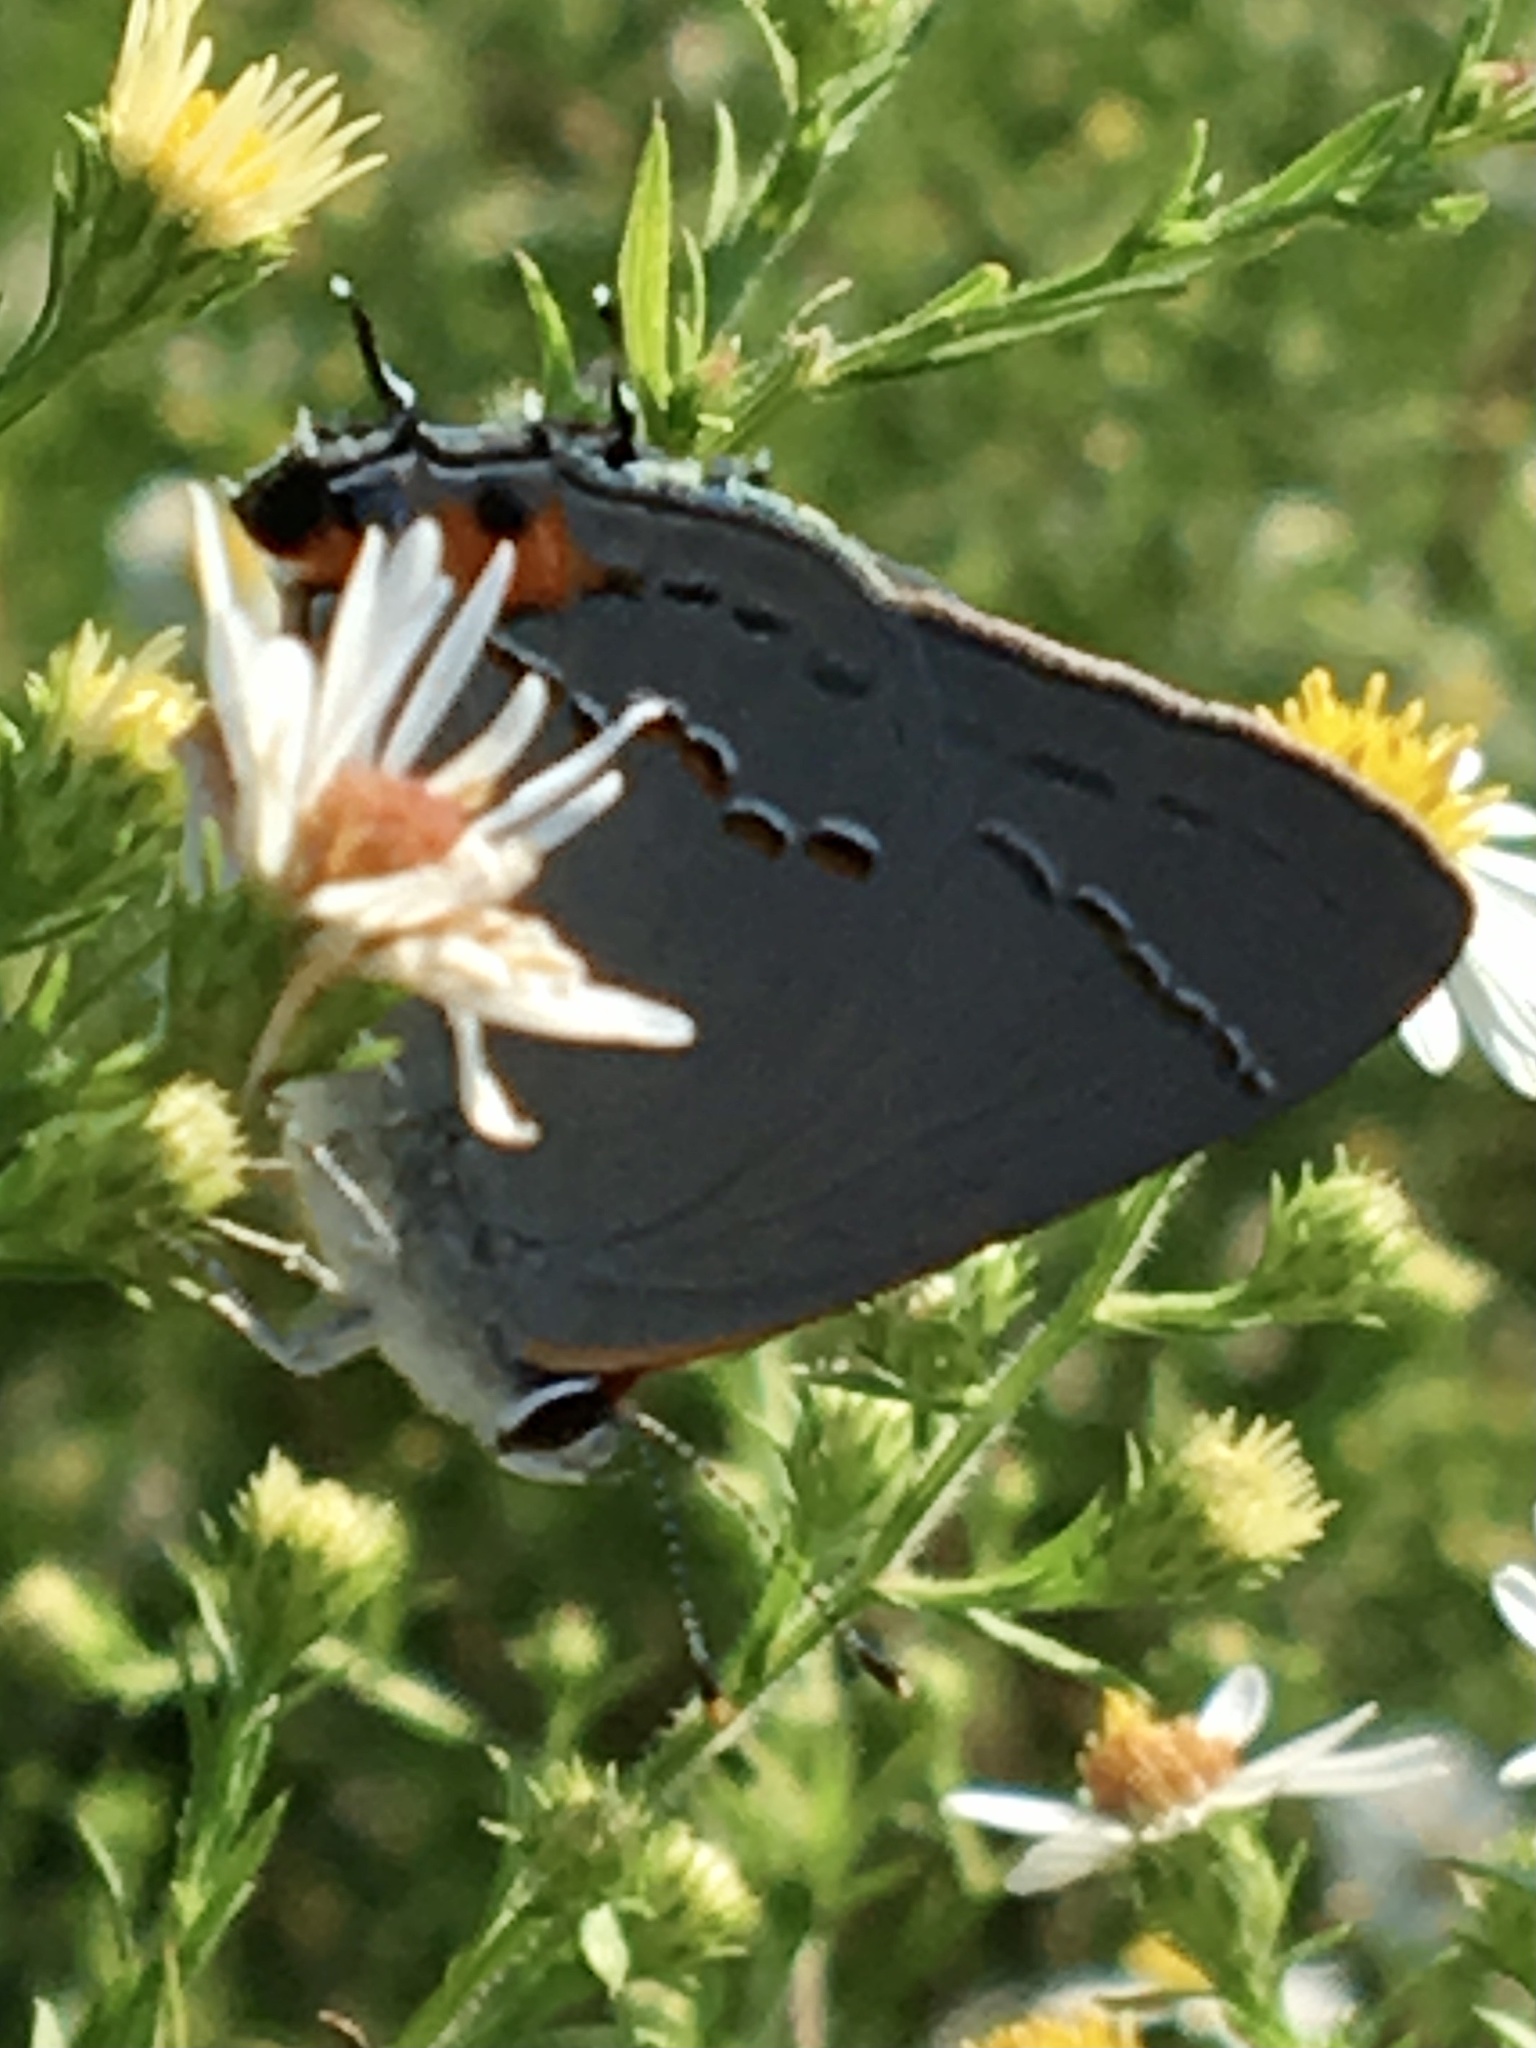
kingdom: Animalia
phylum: Arthropoda
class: Insecta
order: Lepidoptera
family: Lycaenidae
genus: Strymon
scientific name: Strymon melinus
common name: Gray hairstreak
